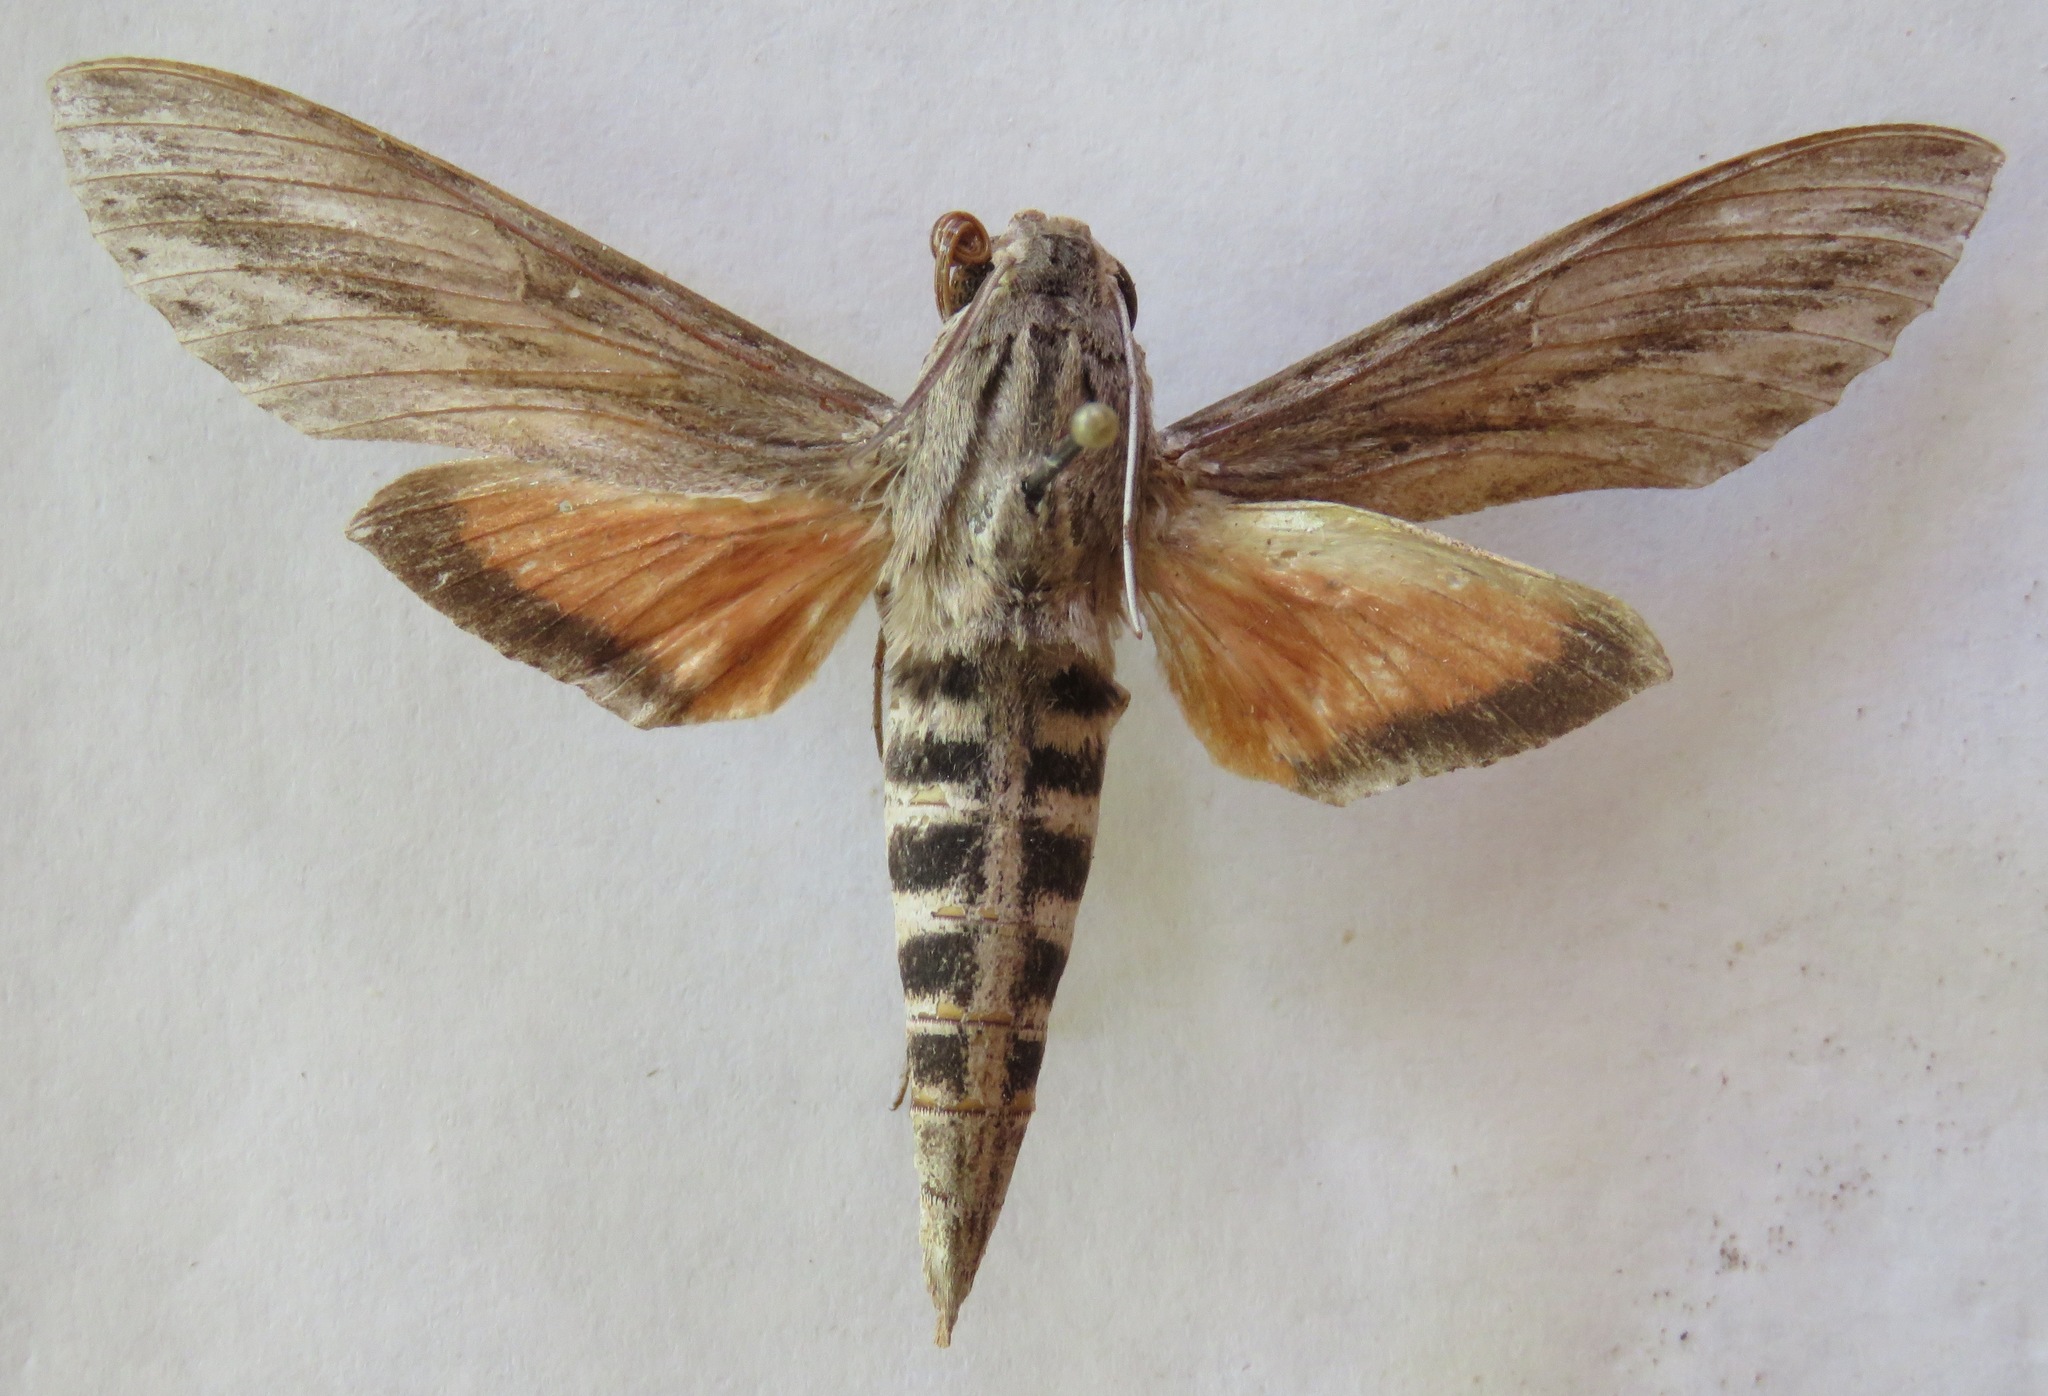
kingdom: Animalia
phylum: Arthropoda
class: Insecta
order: Lepidoptera
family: Sphingidae
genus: Erinnyis
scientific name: Erinnyis ello
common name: Ello sphinx
